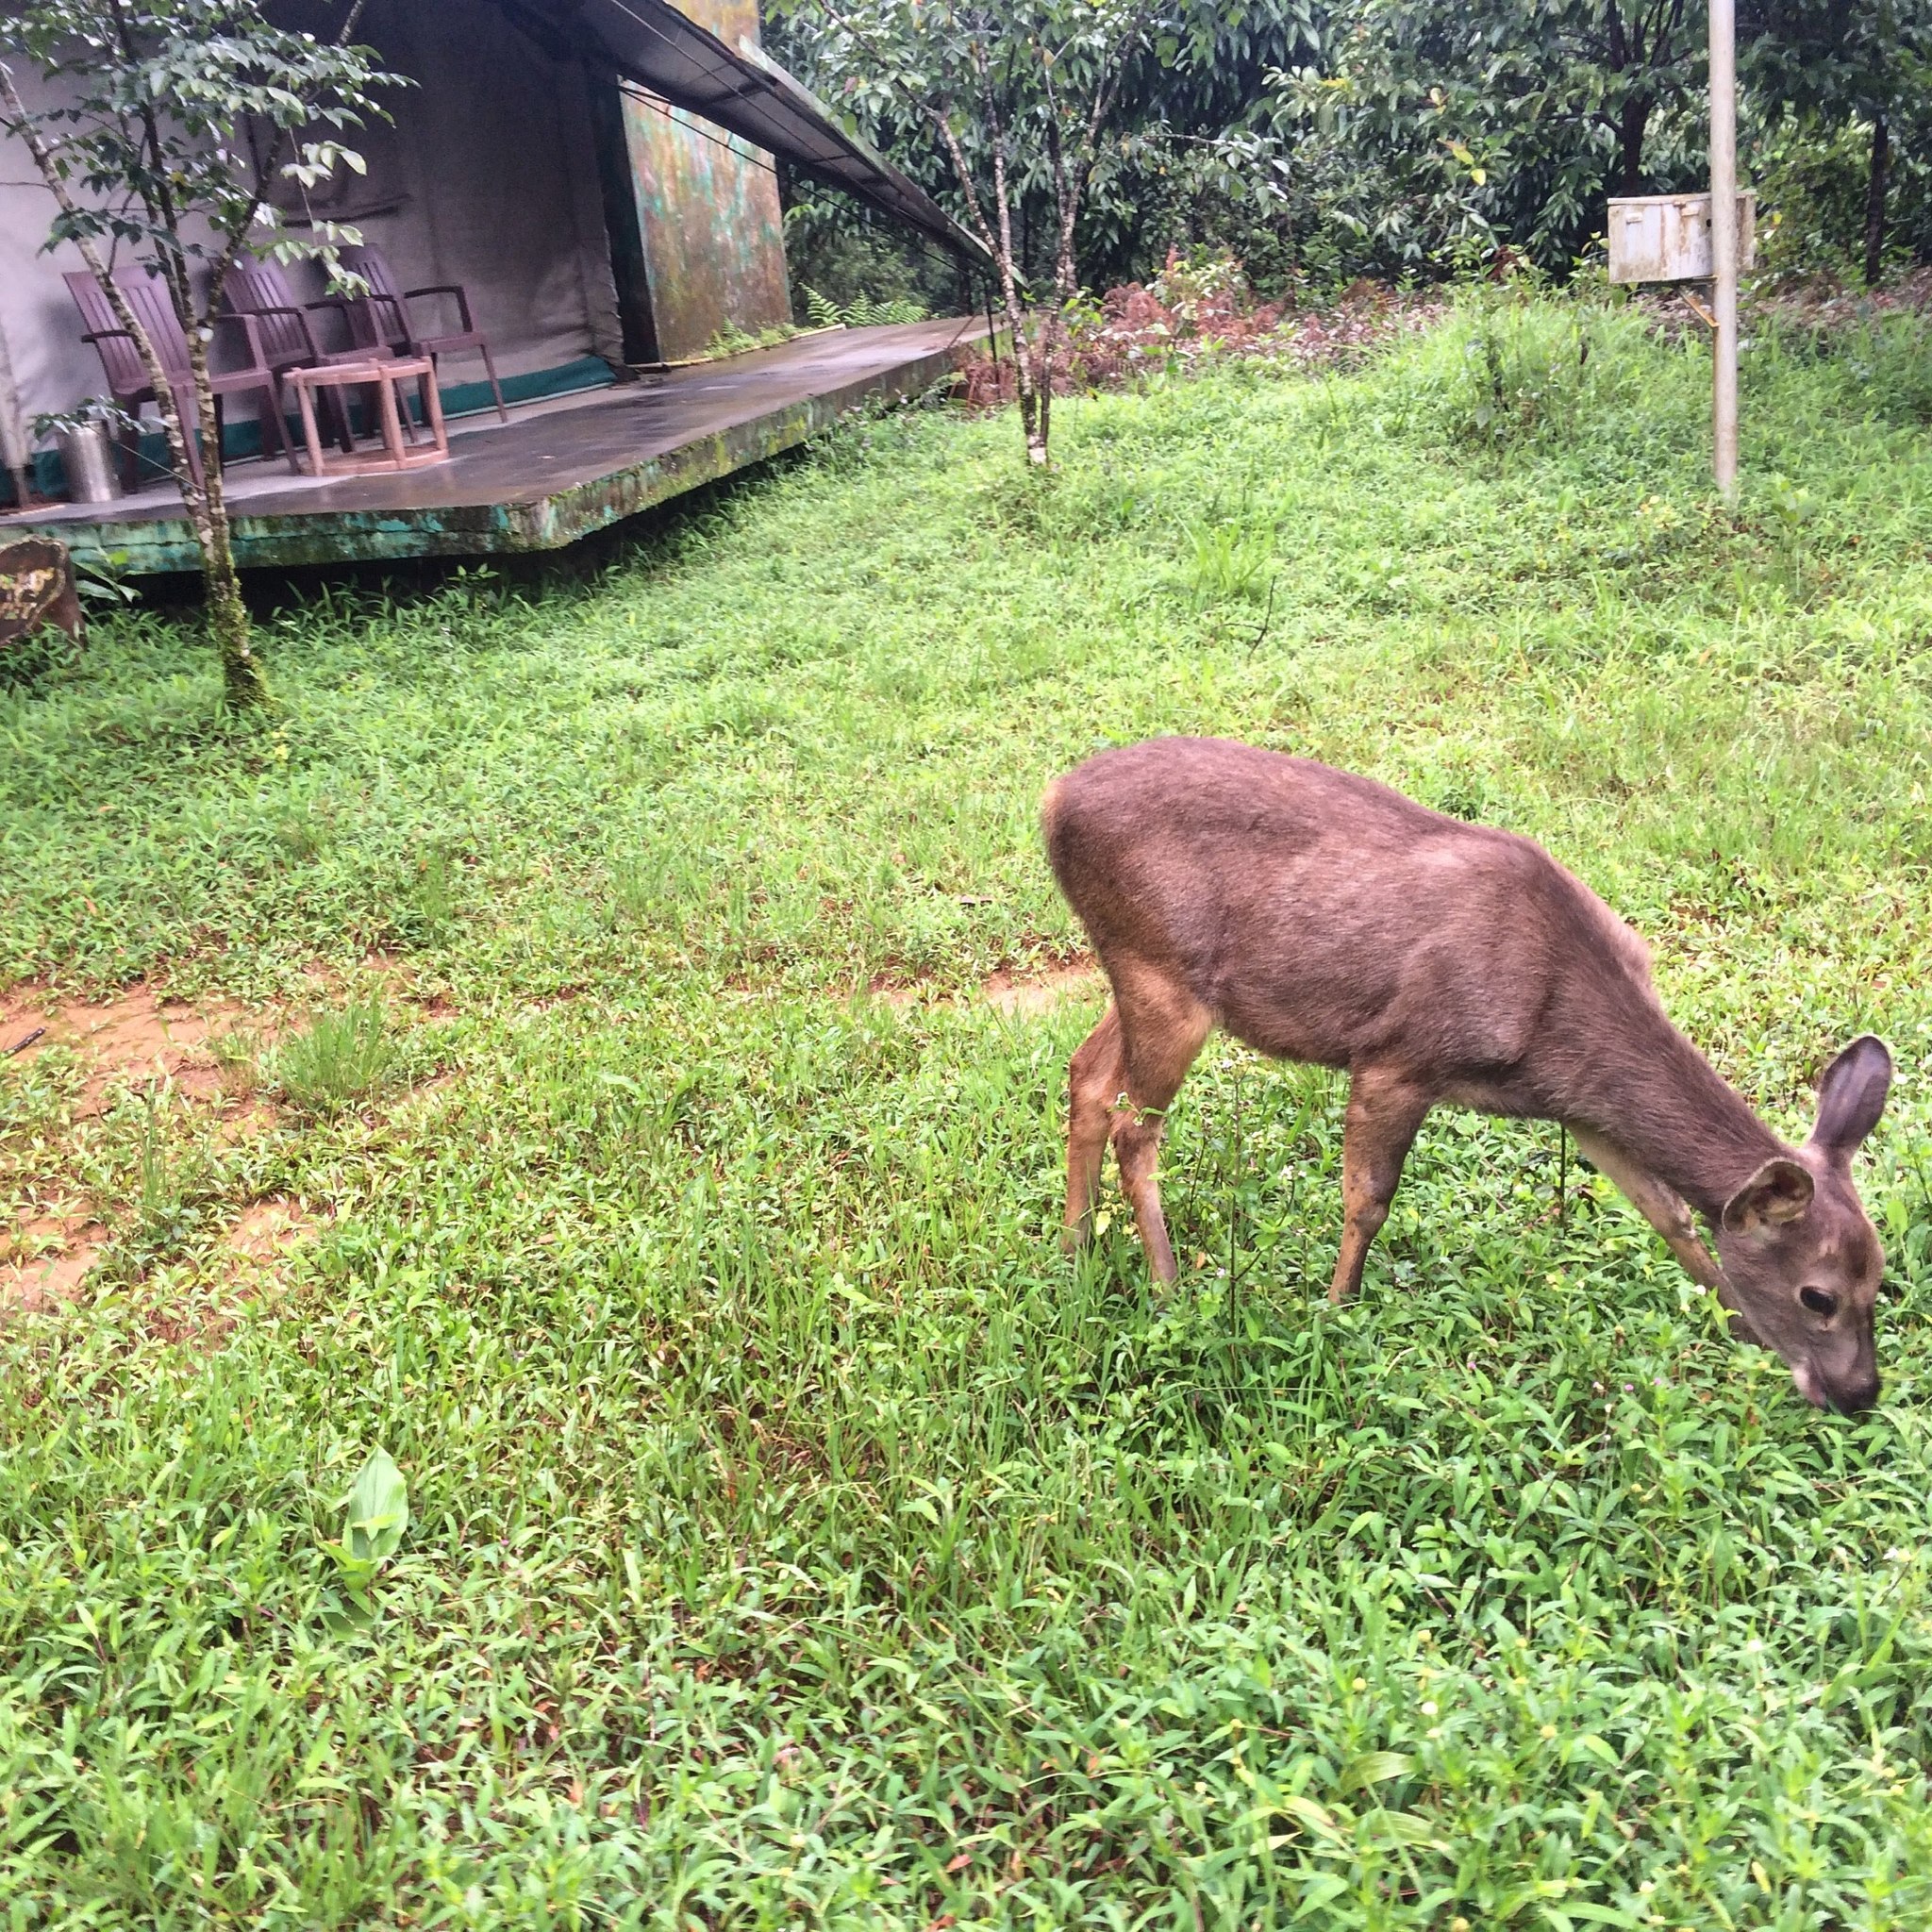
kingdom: Animalia
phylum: Chordata
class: Mammalia
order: Artiodactyla
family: Cervidae
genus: Rusa
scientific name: Rusa unicolor
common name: Sambar
